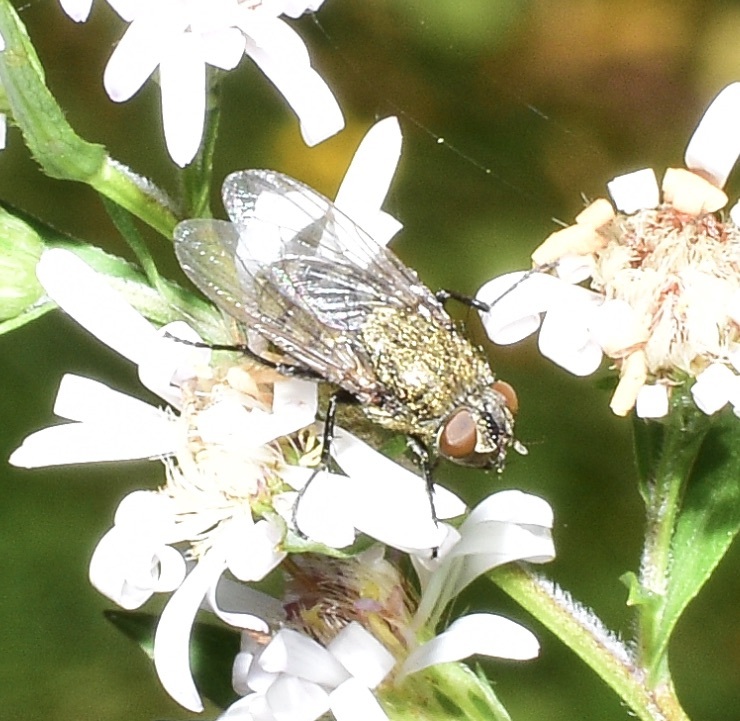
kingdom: Animalia
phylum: Arthropoda
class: Insecta
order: Diptera
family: Polleniidae
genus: Pollenia
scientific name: Pollenia
